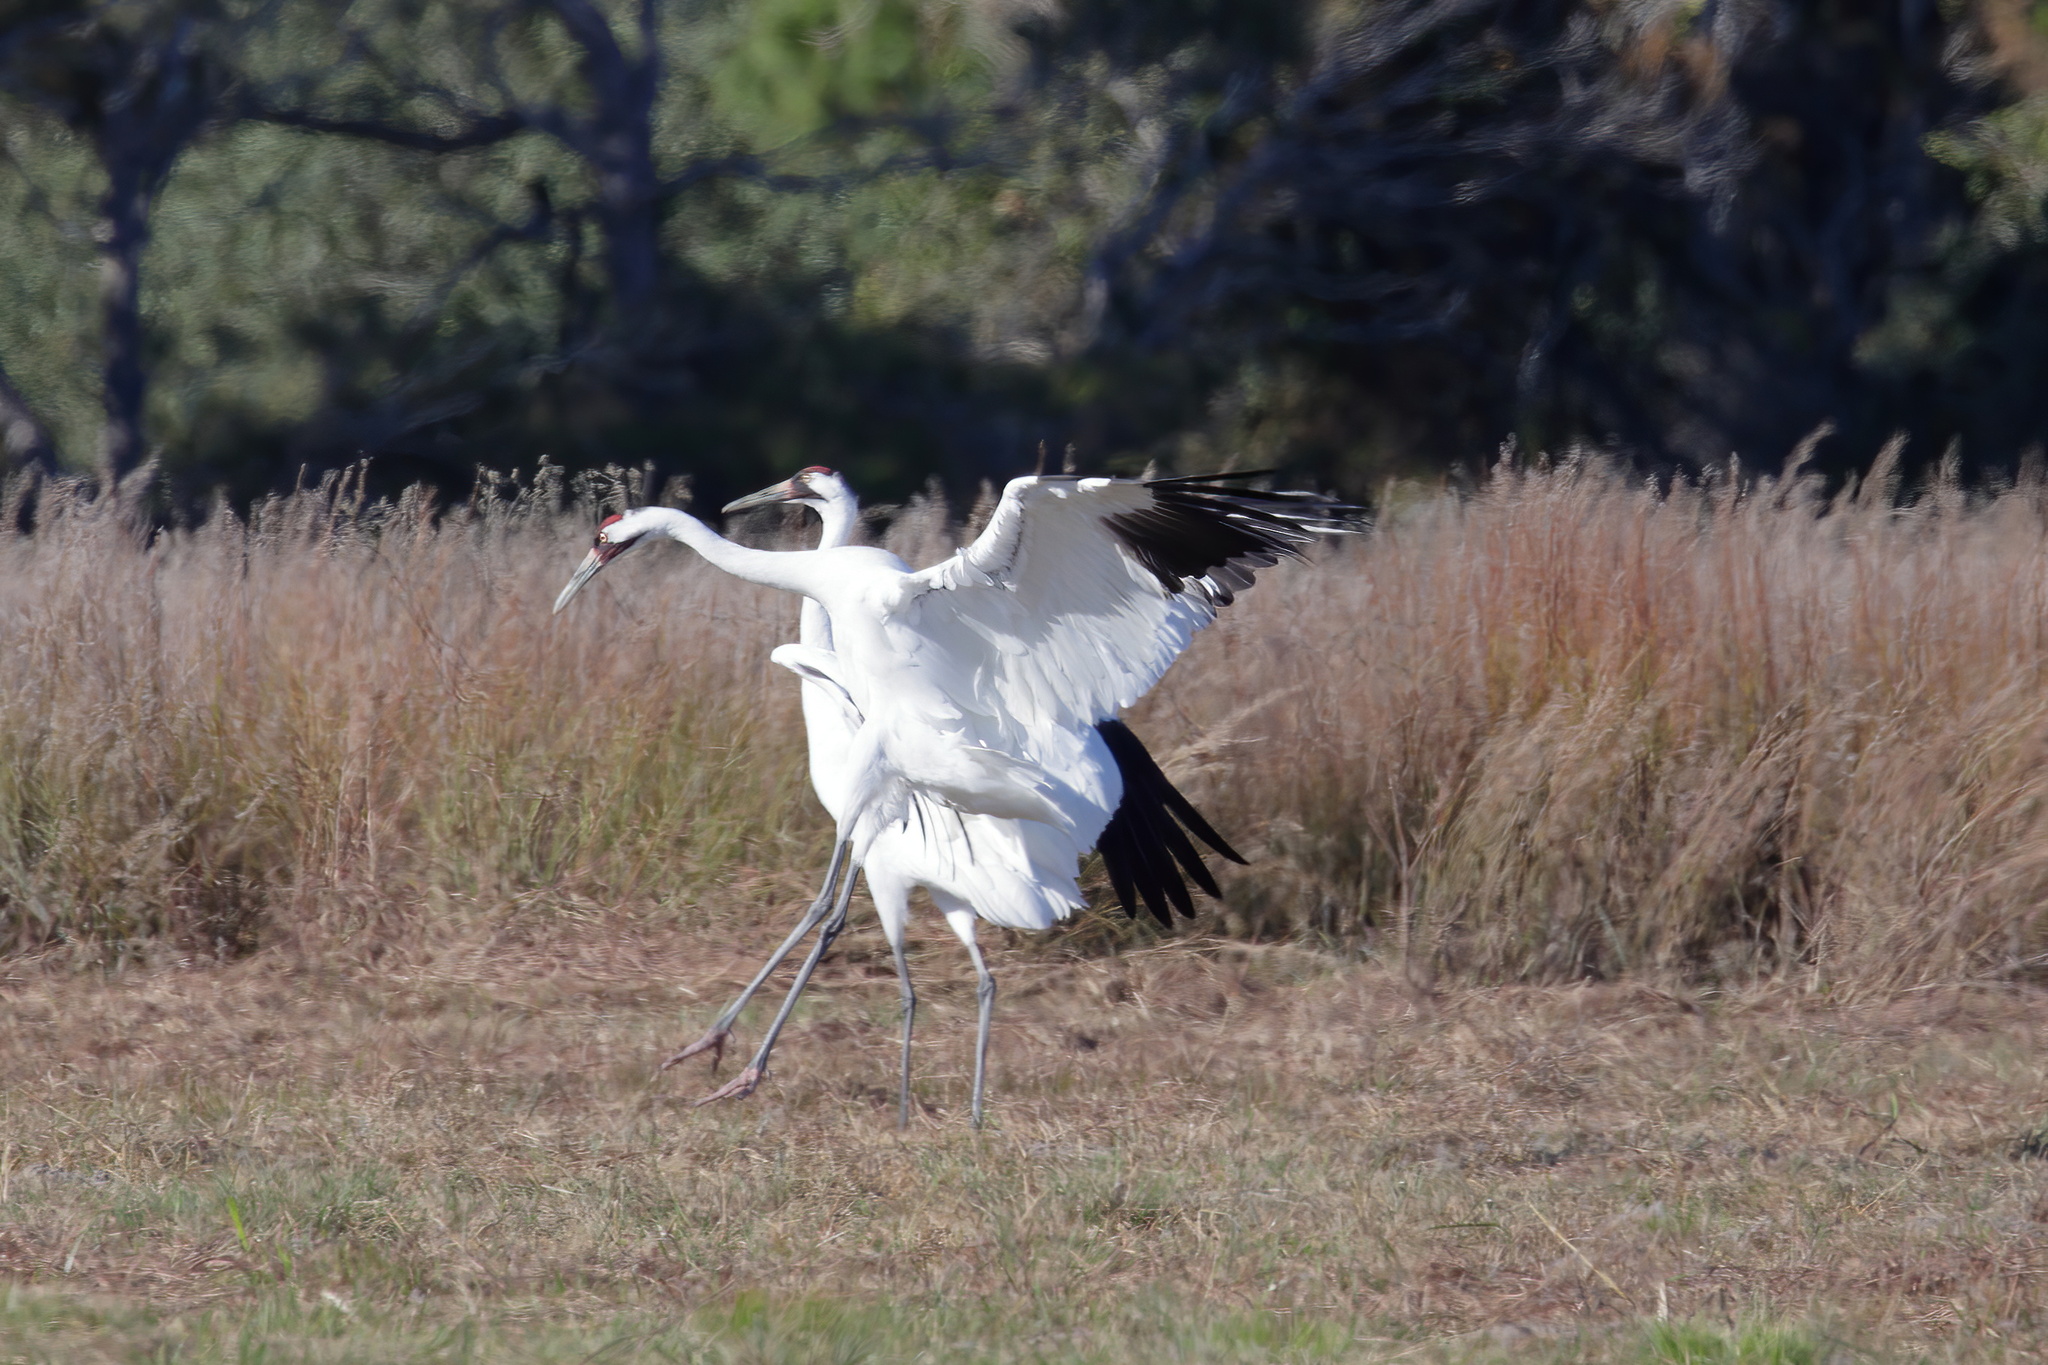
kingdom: Animalia
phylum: Chordata
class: Aves
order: Gruiformes
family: Gruidae
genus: Grus
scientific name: Grus americana
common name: Whooping crane
